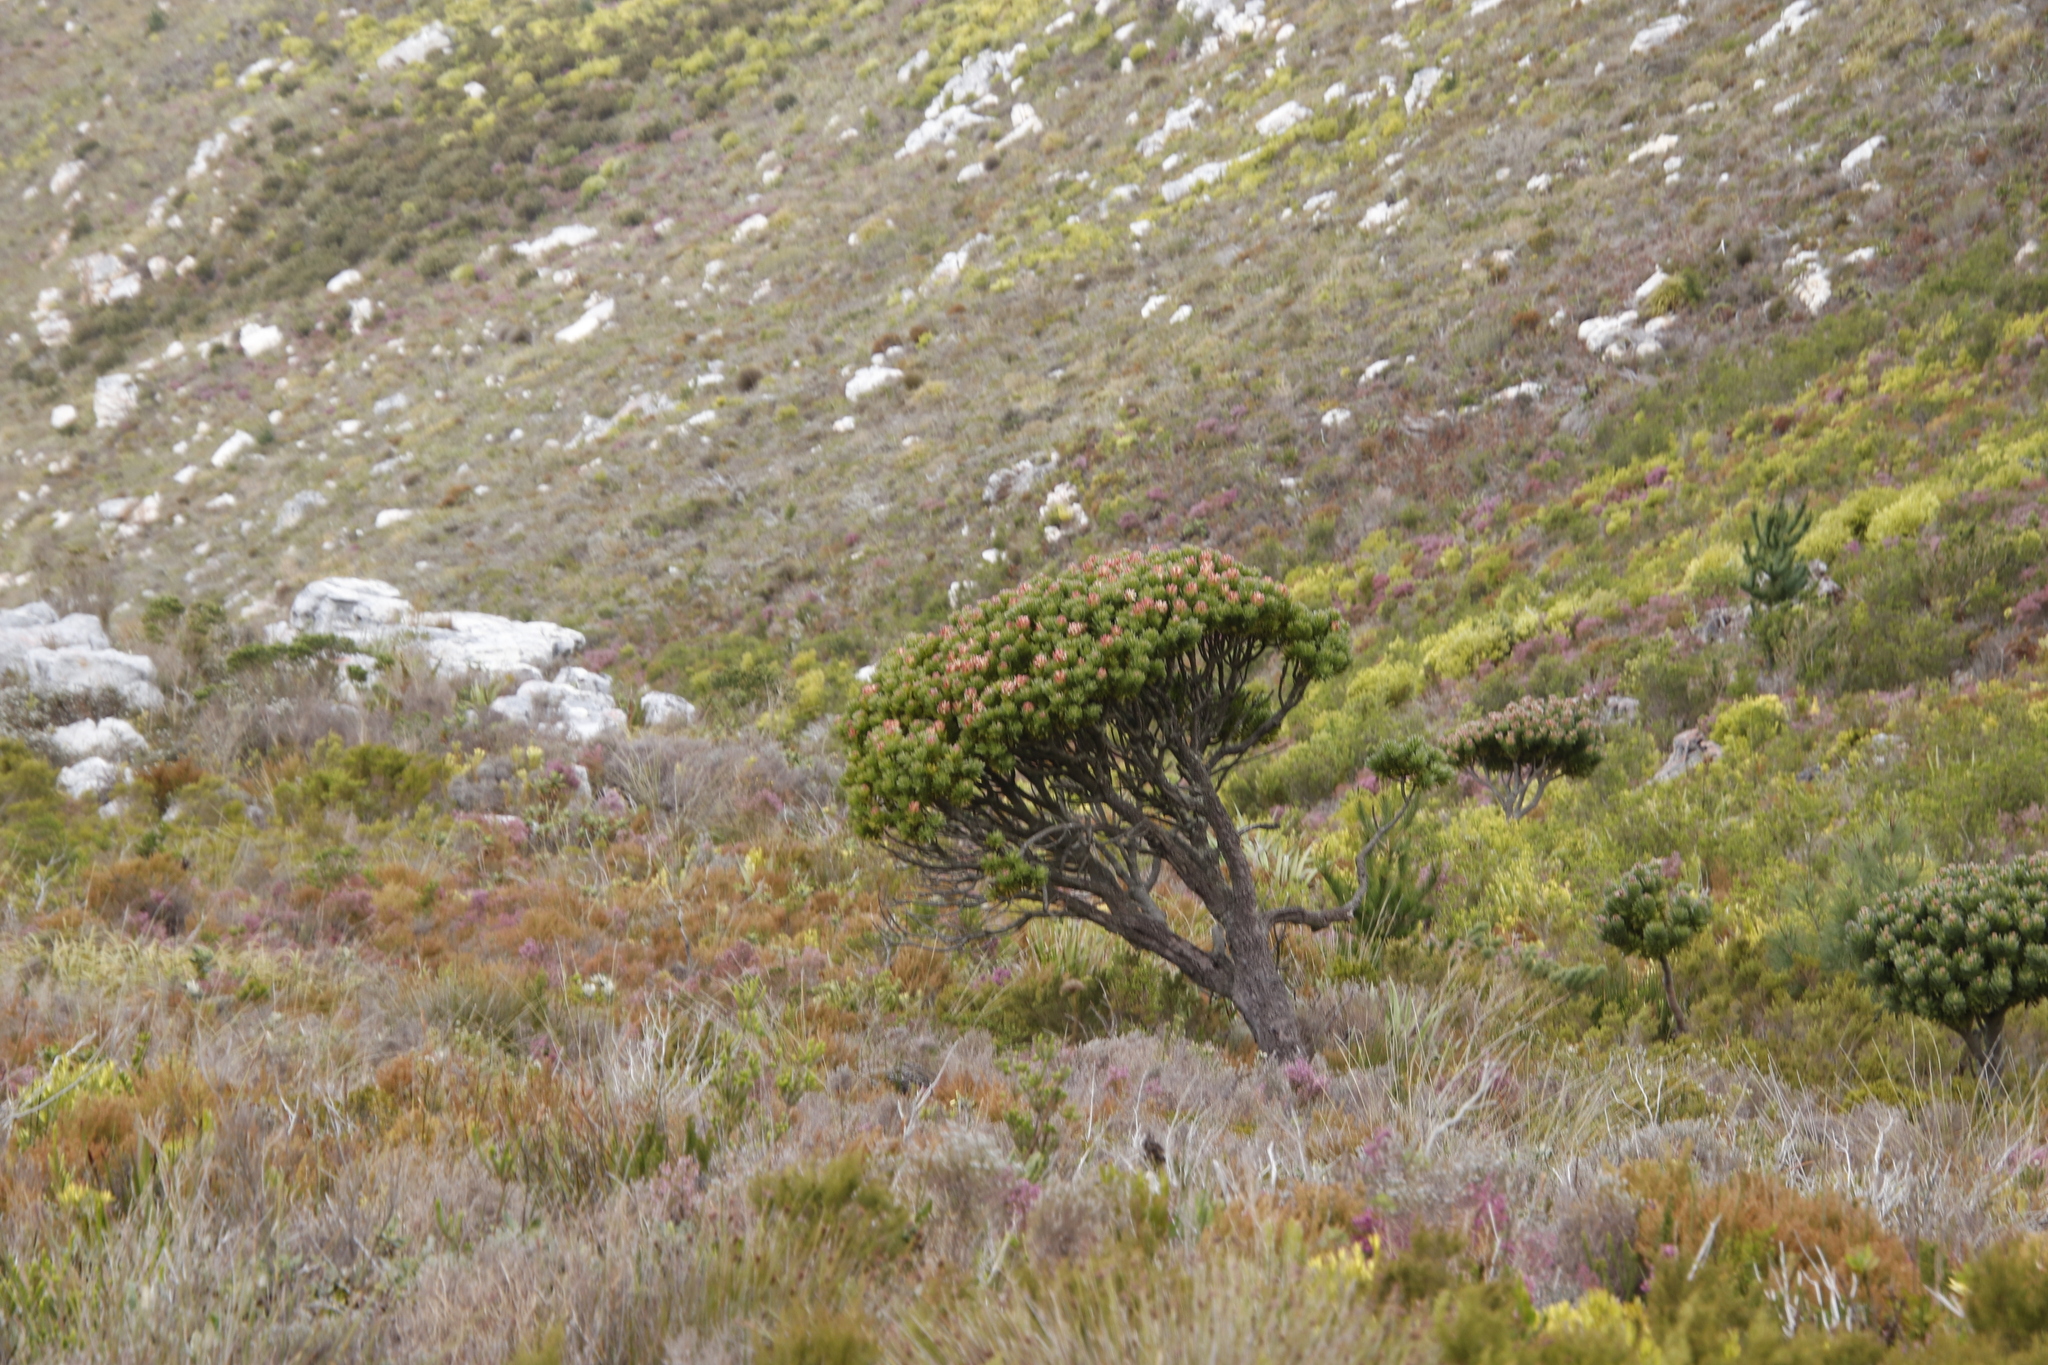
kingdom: Plantae
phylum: Tracheophyta
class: Magnoliopsida
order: Proteales
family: Proteaceae
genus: Mimetes
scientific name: Mimetes fimbriifolius
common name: Fringed bottlebrush
